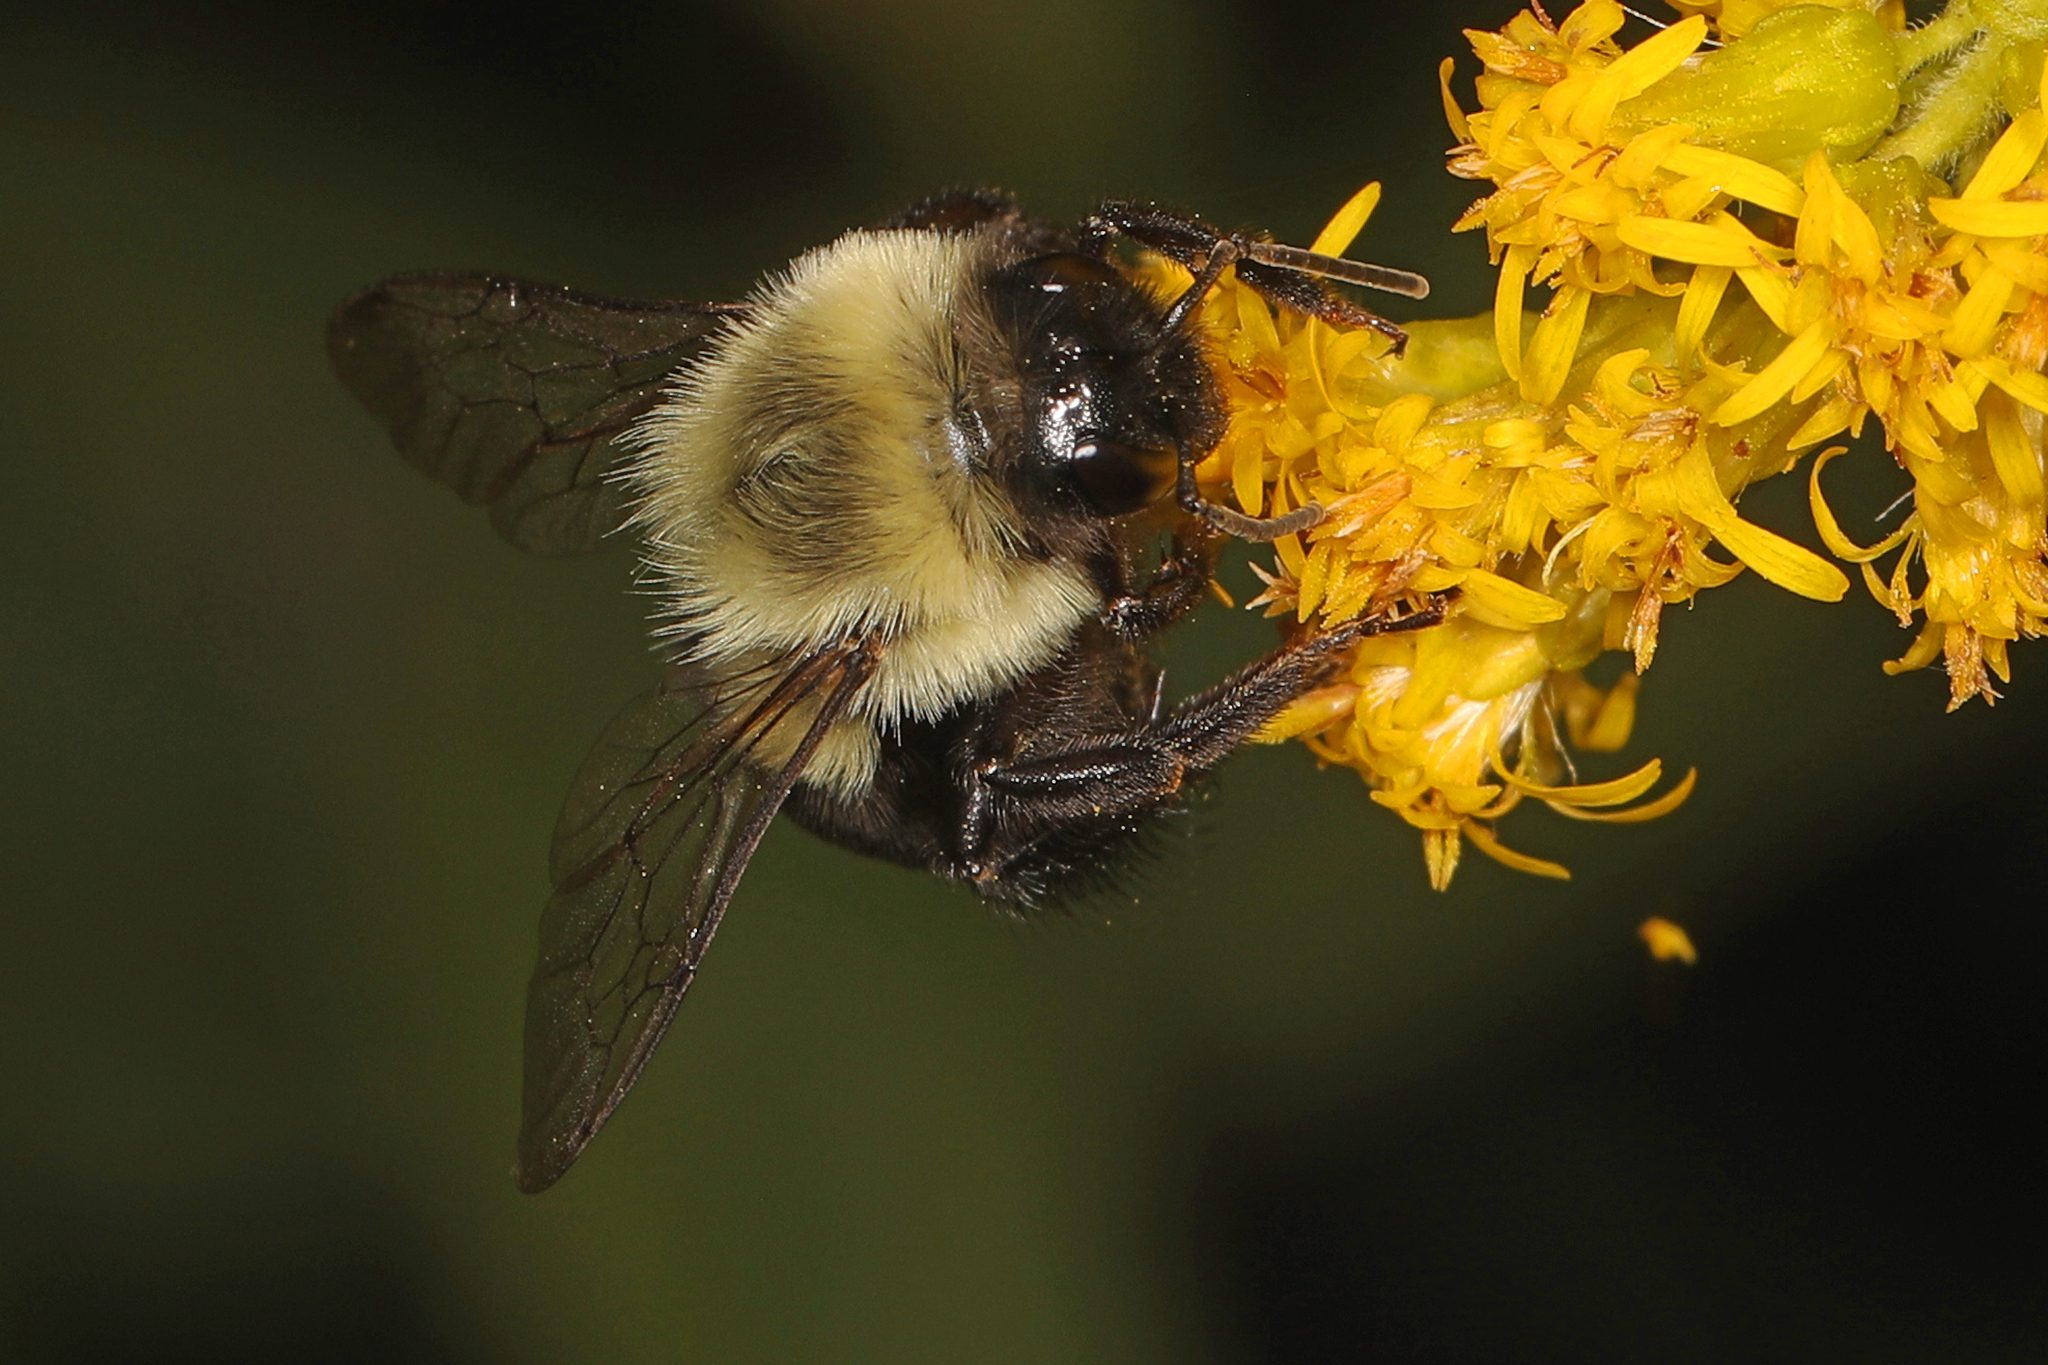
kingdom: Animalia
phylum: Arthropoda
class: Insecta
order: Hymenoptera
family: Apidae
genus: Bombus
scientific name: Bombus impatiens
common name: Common eastern bumble bee
